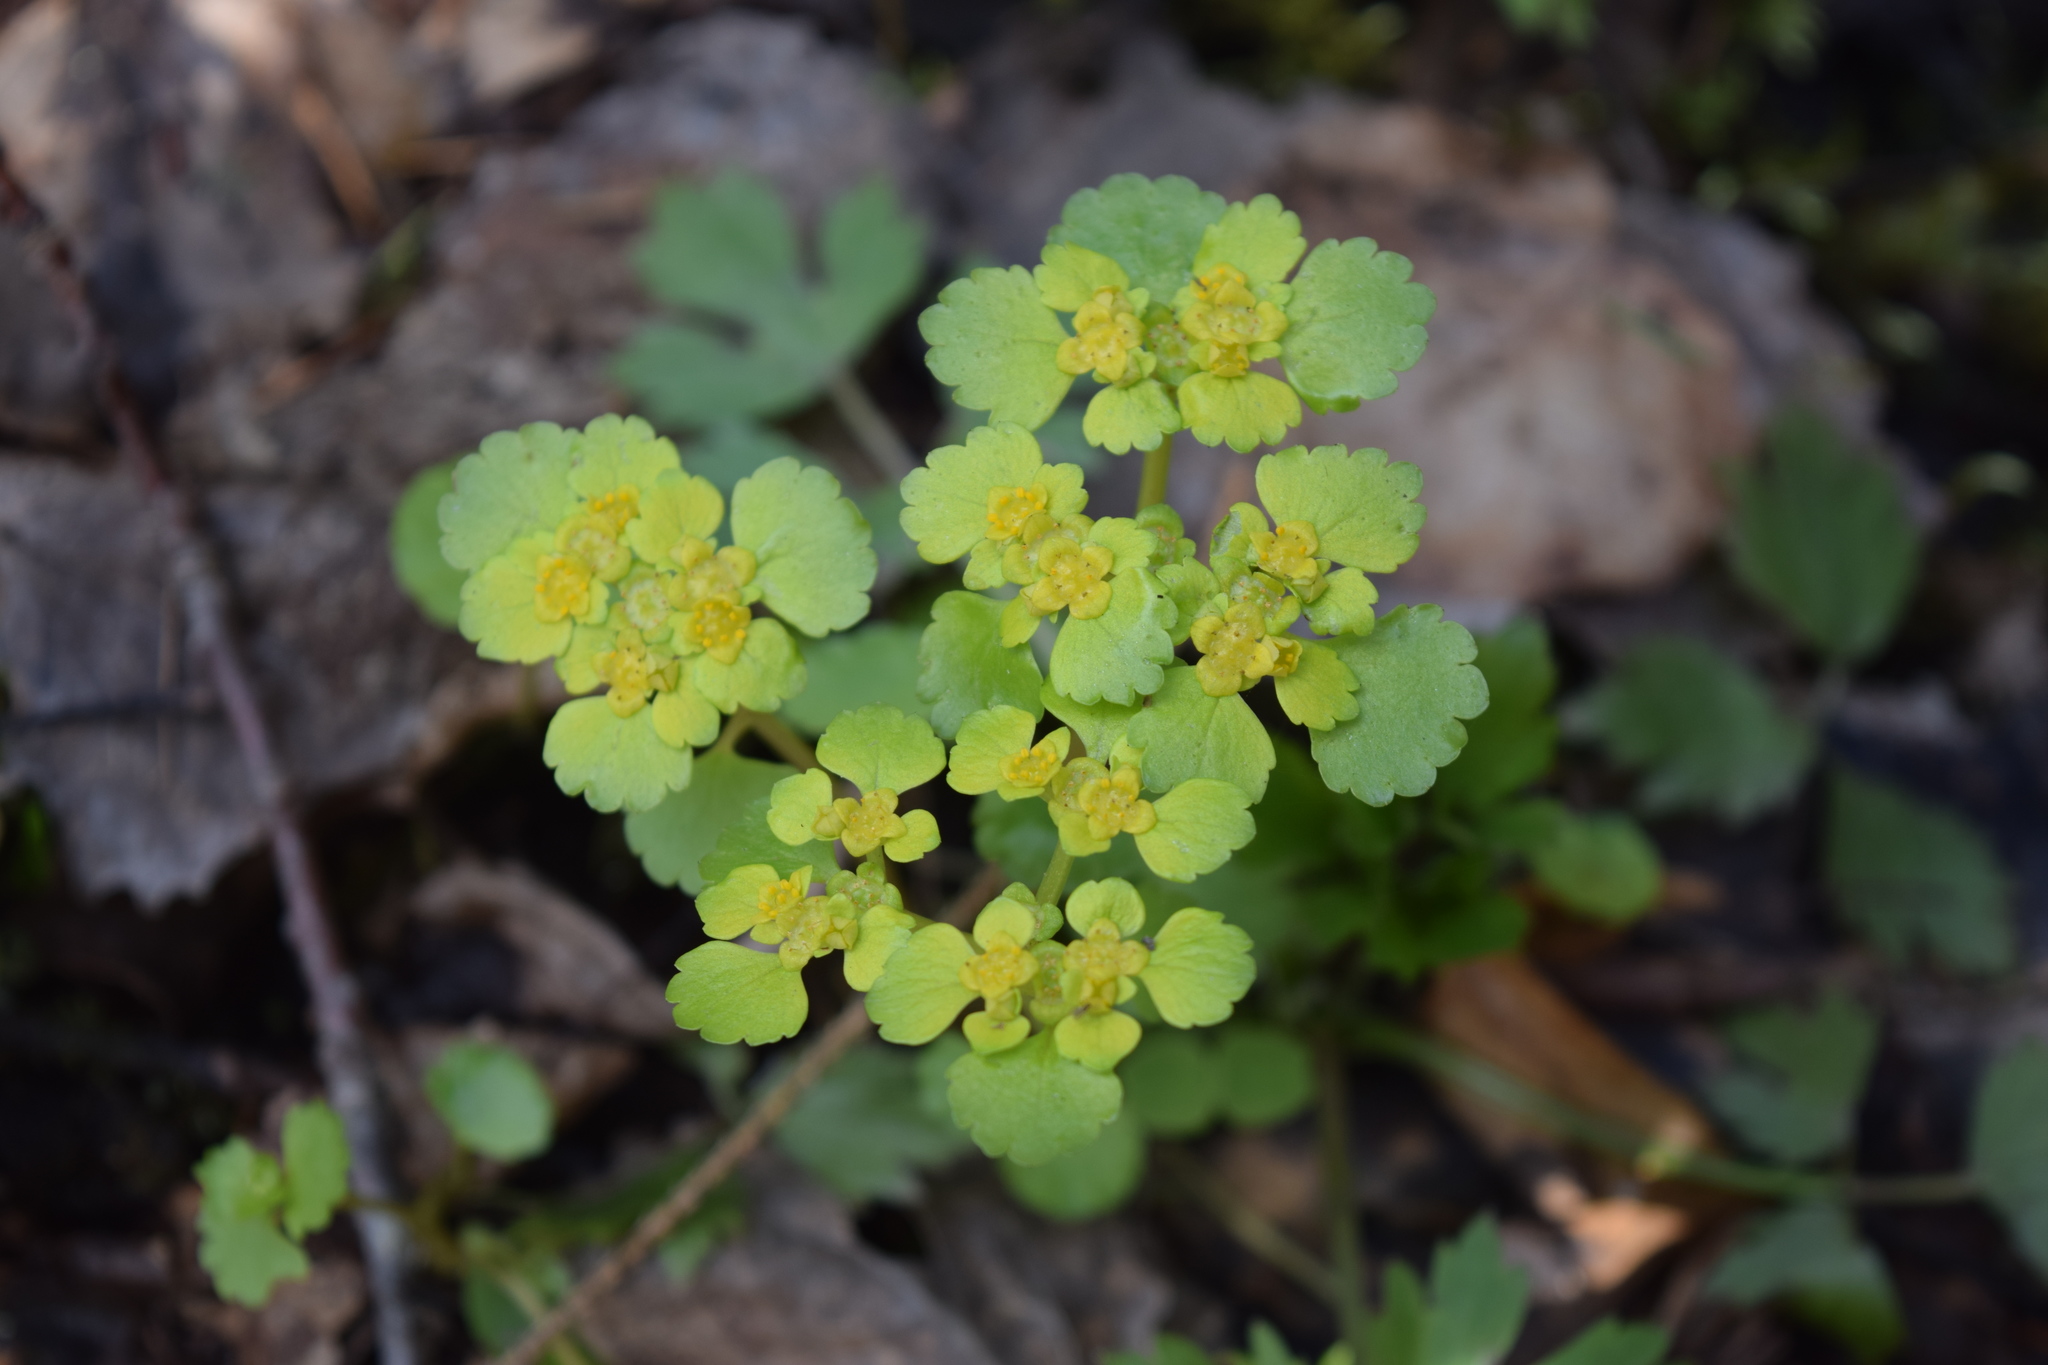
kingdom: Plantae
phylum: Tracheophyta
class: Magnoliopsida
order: Saxifragales
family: Saxifragaceae
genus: Chrysosplenium
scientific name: Chrysosplenium alternifolium
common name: Alternate-leaved golden-saxifrage
